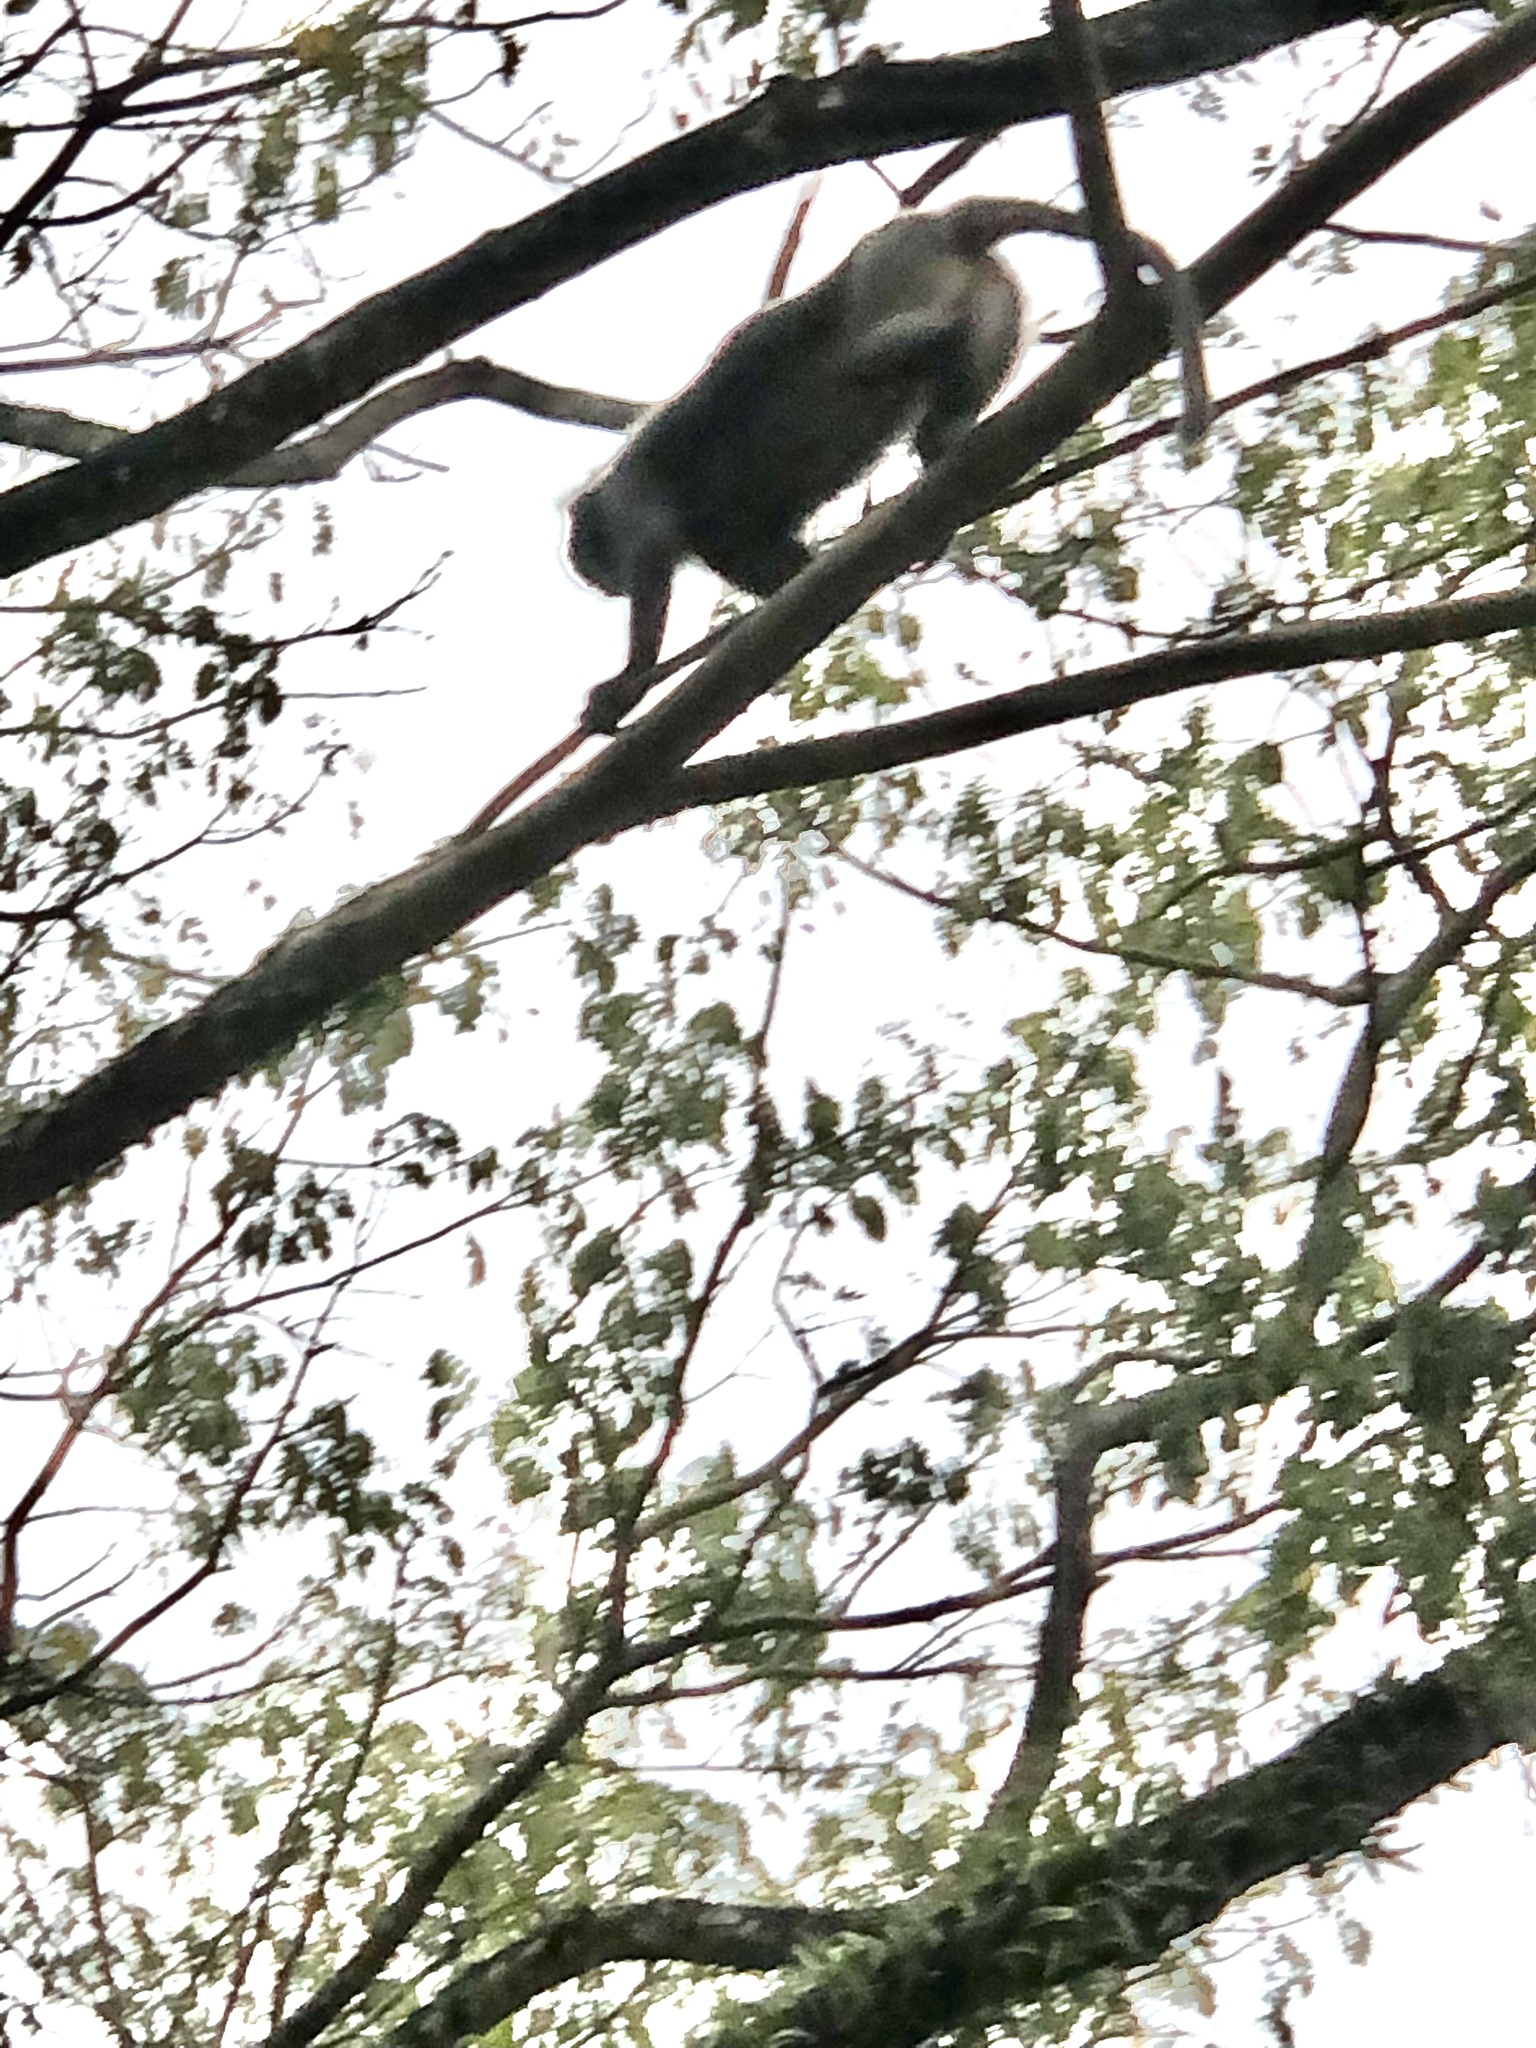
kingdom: Animalia
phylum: Chordata
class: Mammalia
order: Primates
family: Cercopithecidae
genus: Trachypithecus
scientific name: Trachypithecus obscurus
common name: Dusky leaf-monkey
